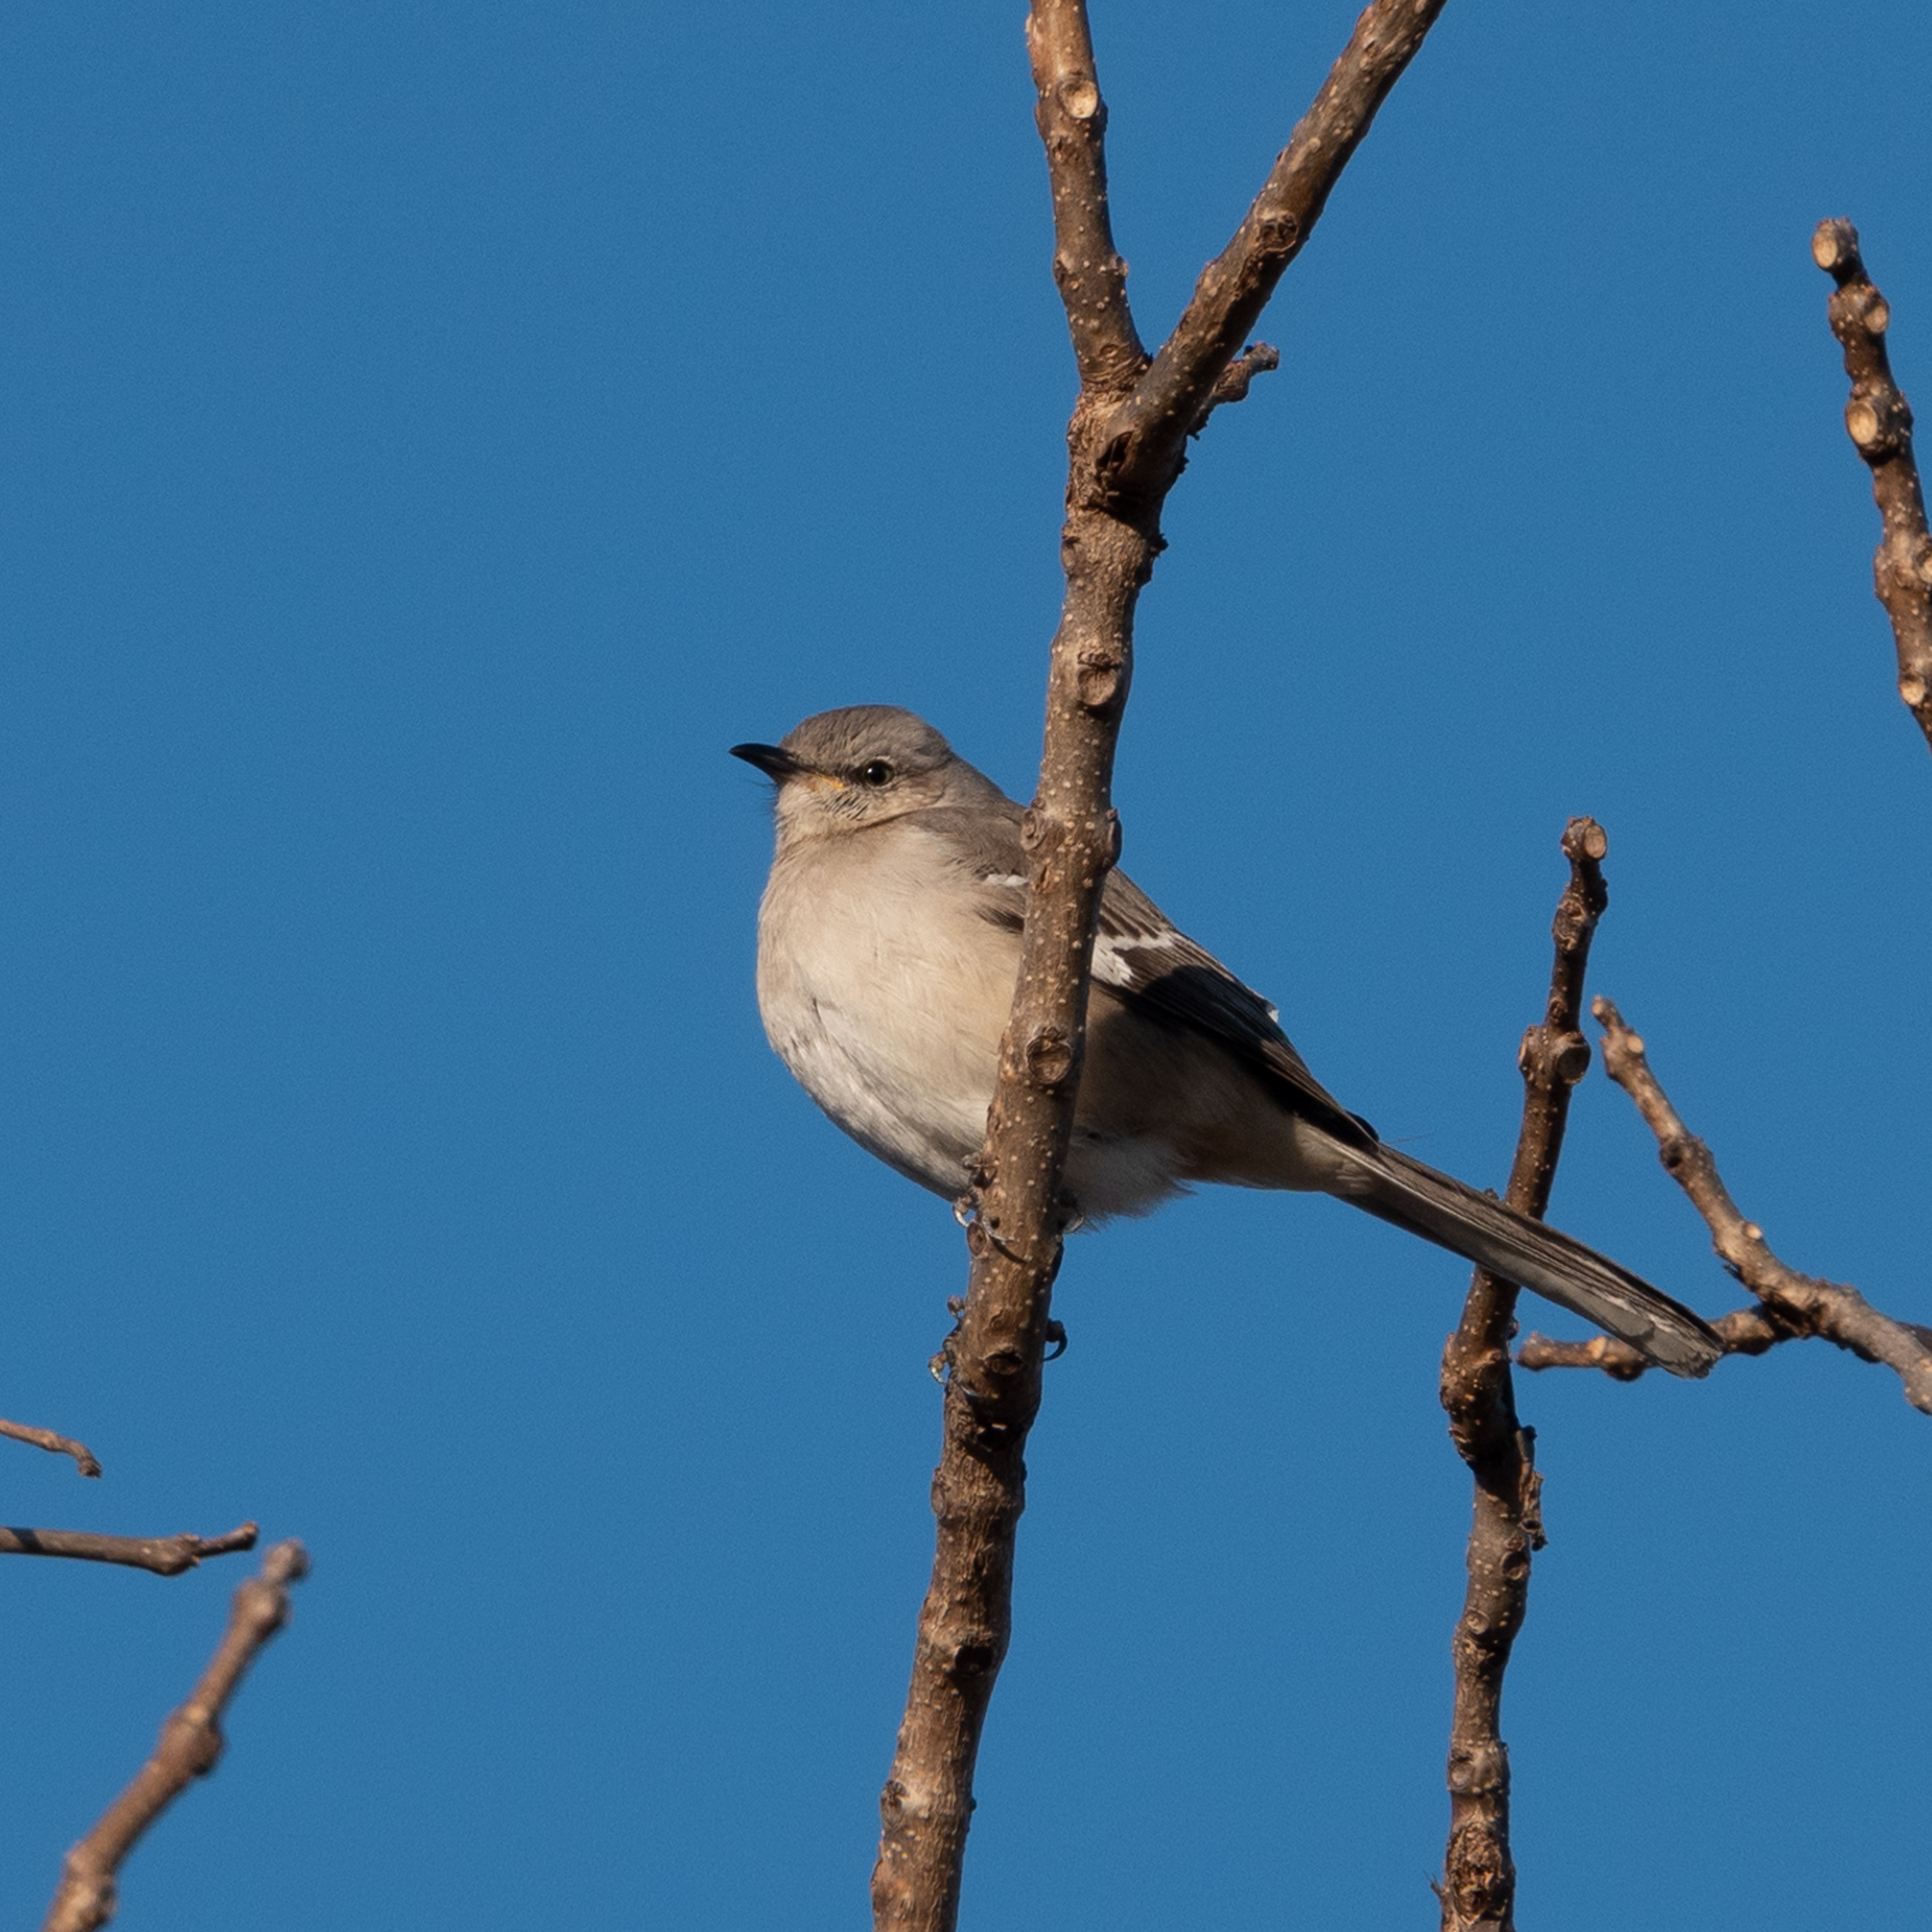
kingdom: Animalia
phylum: Chordata
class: Aves
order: Passeriformes
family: Mimidae
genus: Mimus
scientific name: Mimus polyglottos
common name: Northern mockingbird
